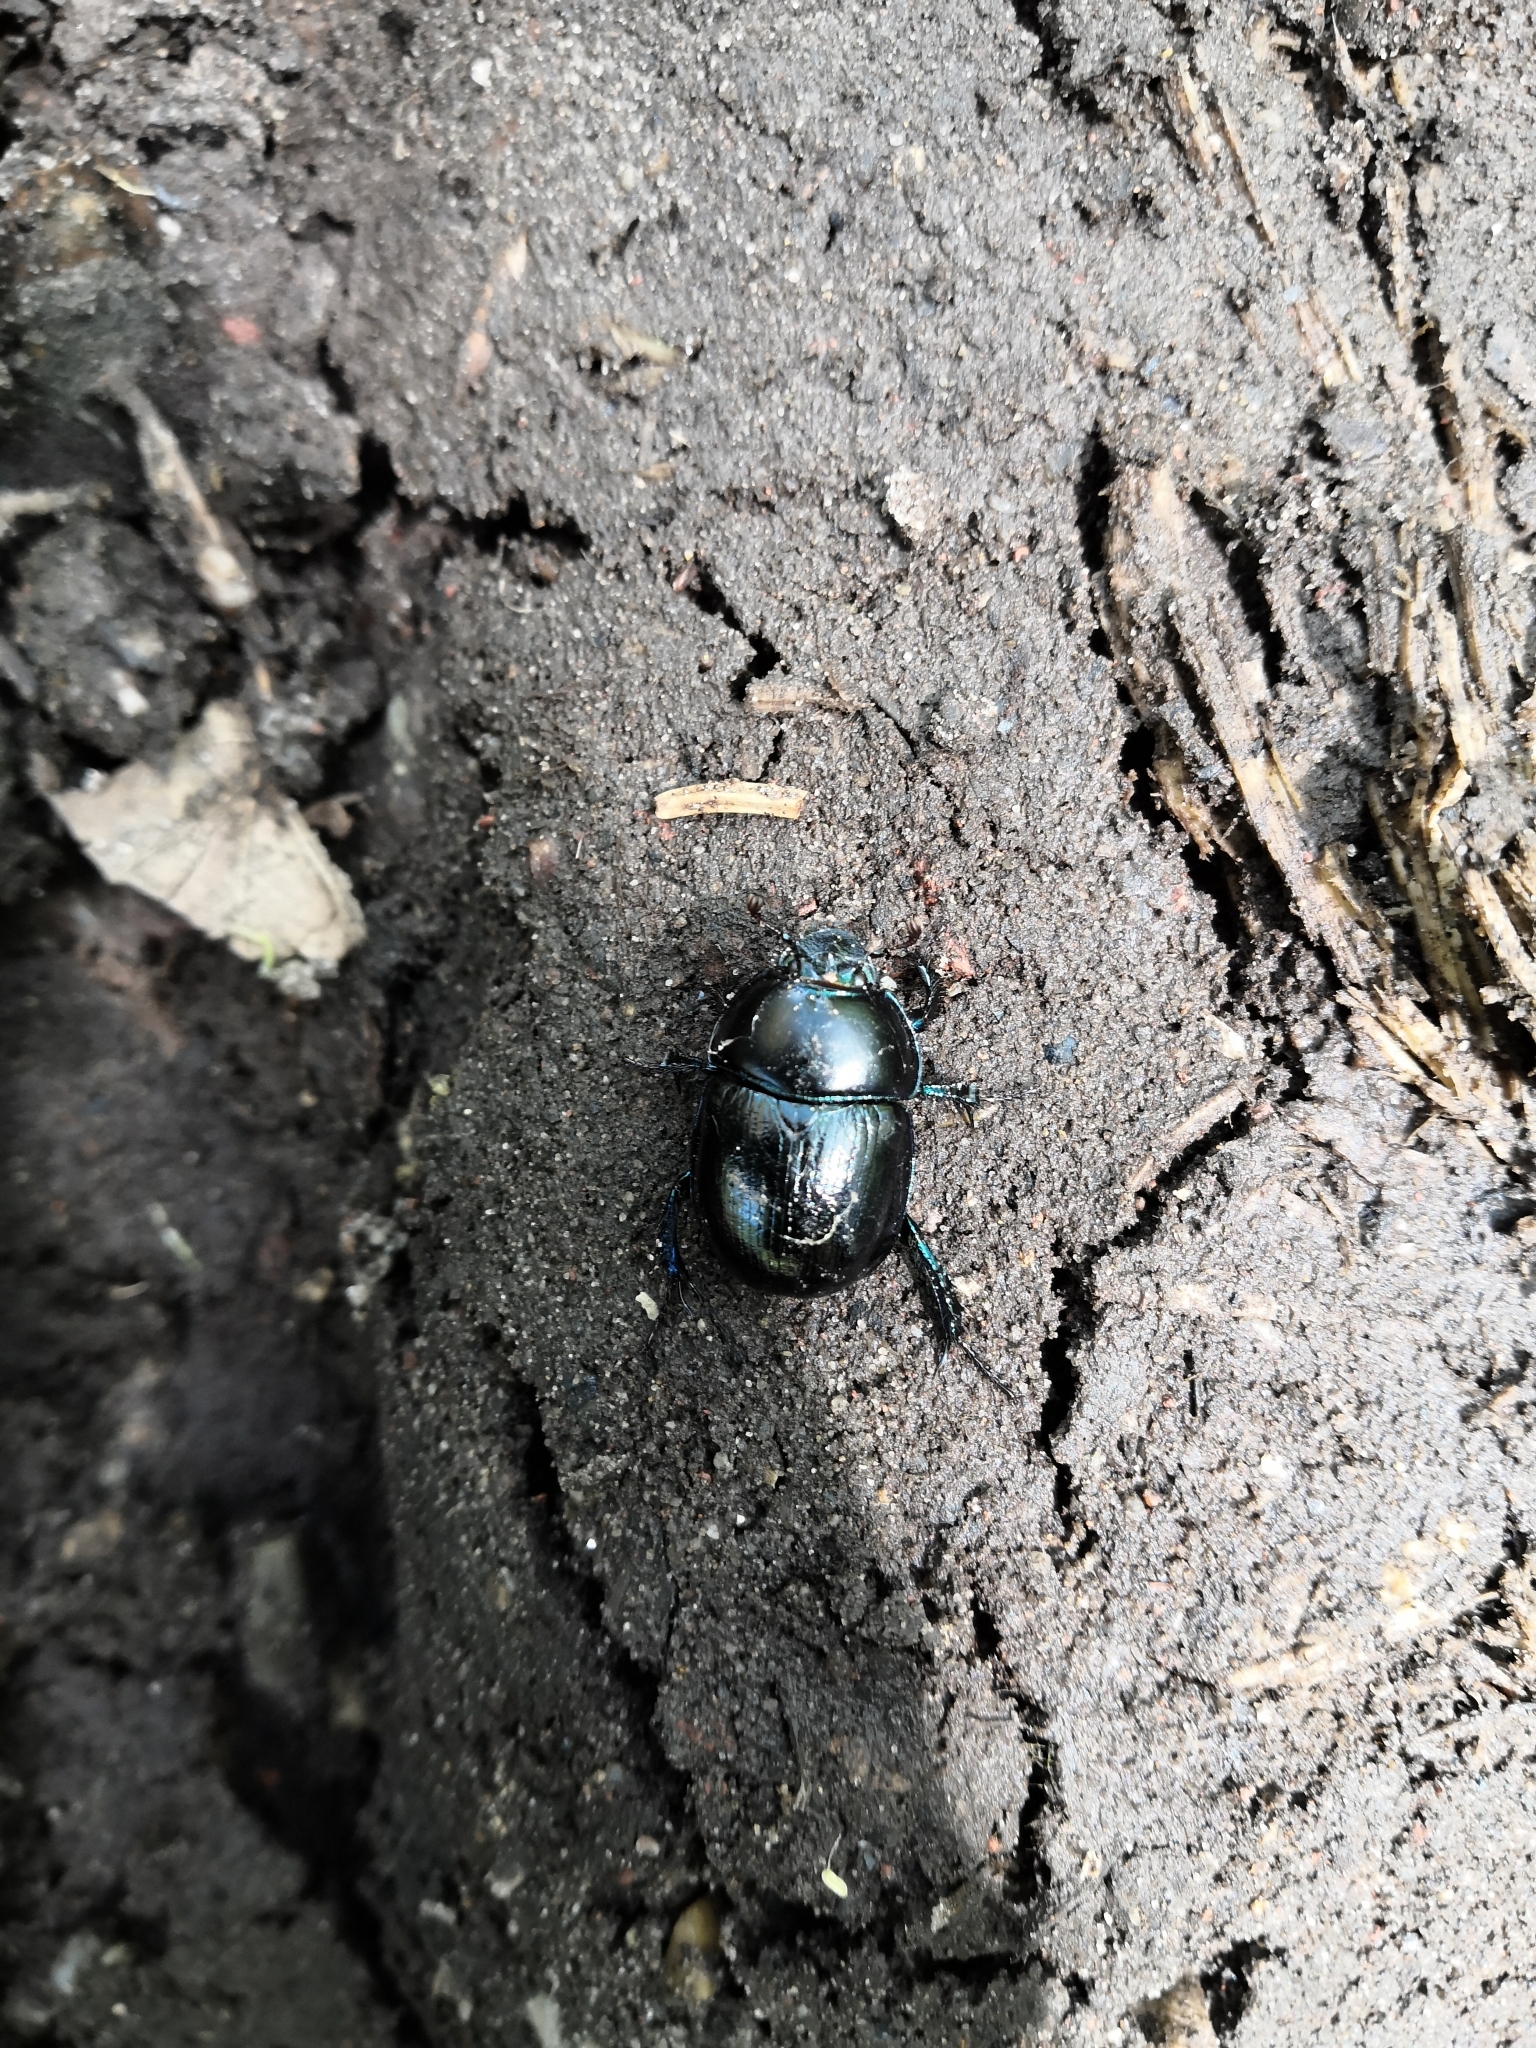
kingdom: Animalia
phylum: Arthropoda
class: Insecta
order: Coleoptera
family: Geotrupidae
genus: Anoplotrupes
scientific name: Anoplotrupes stercorosus
